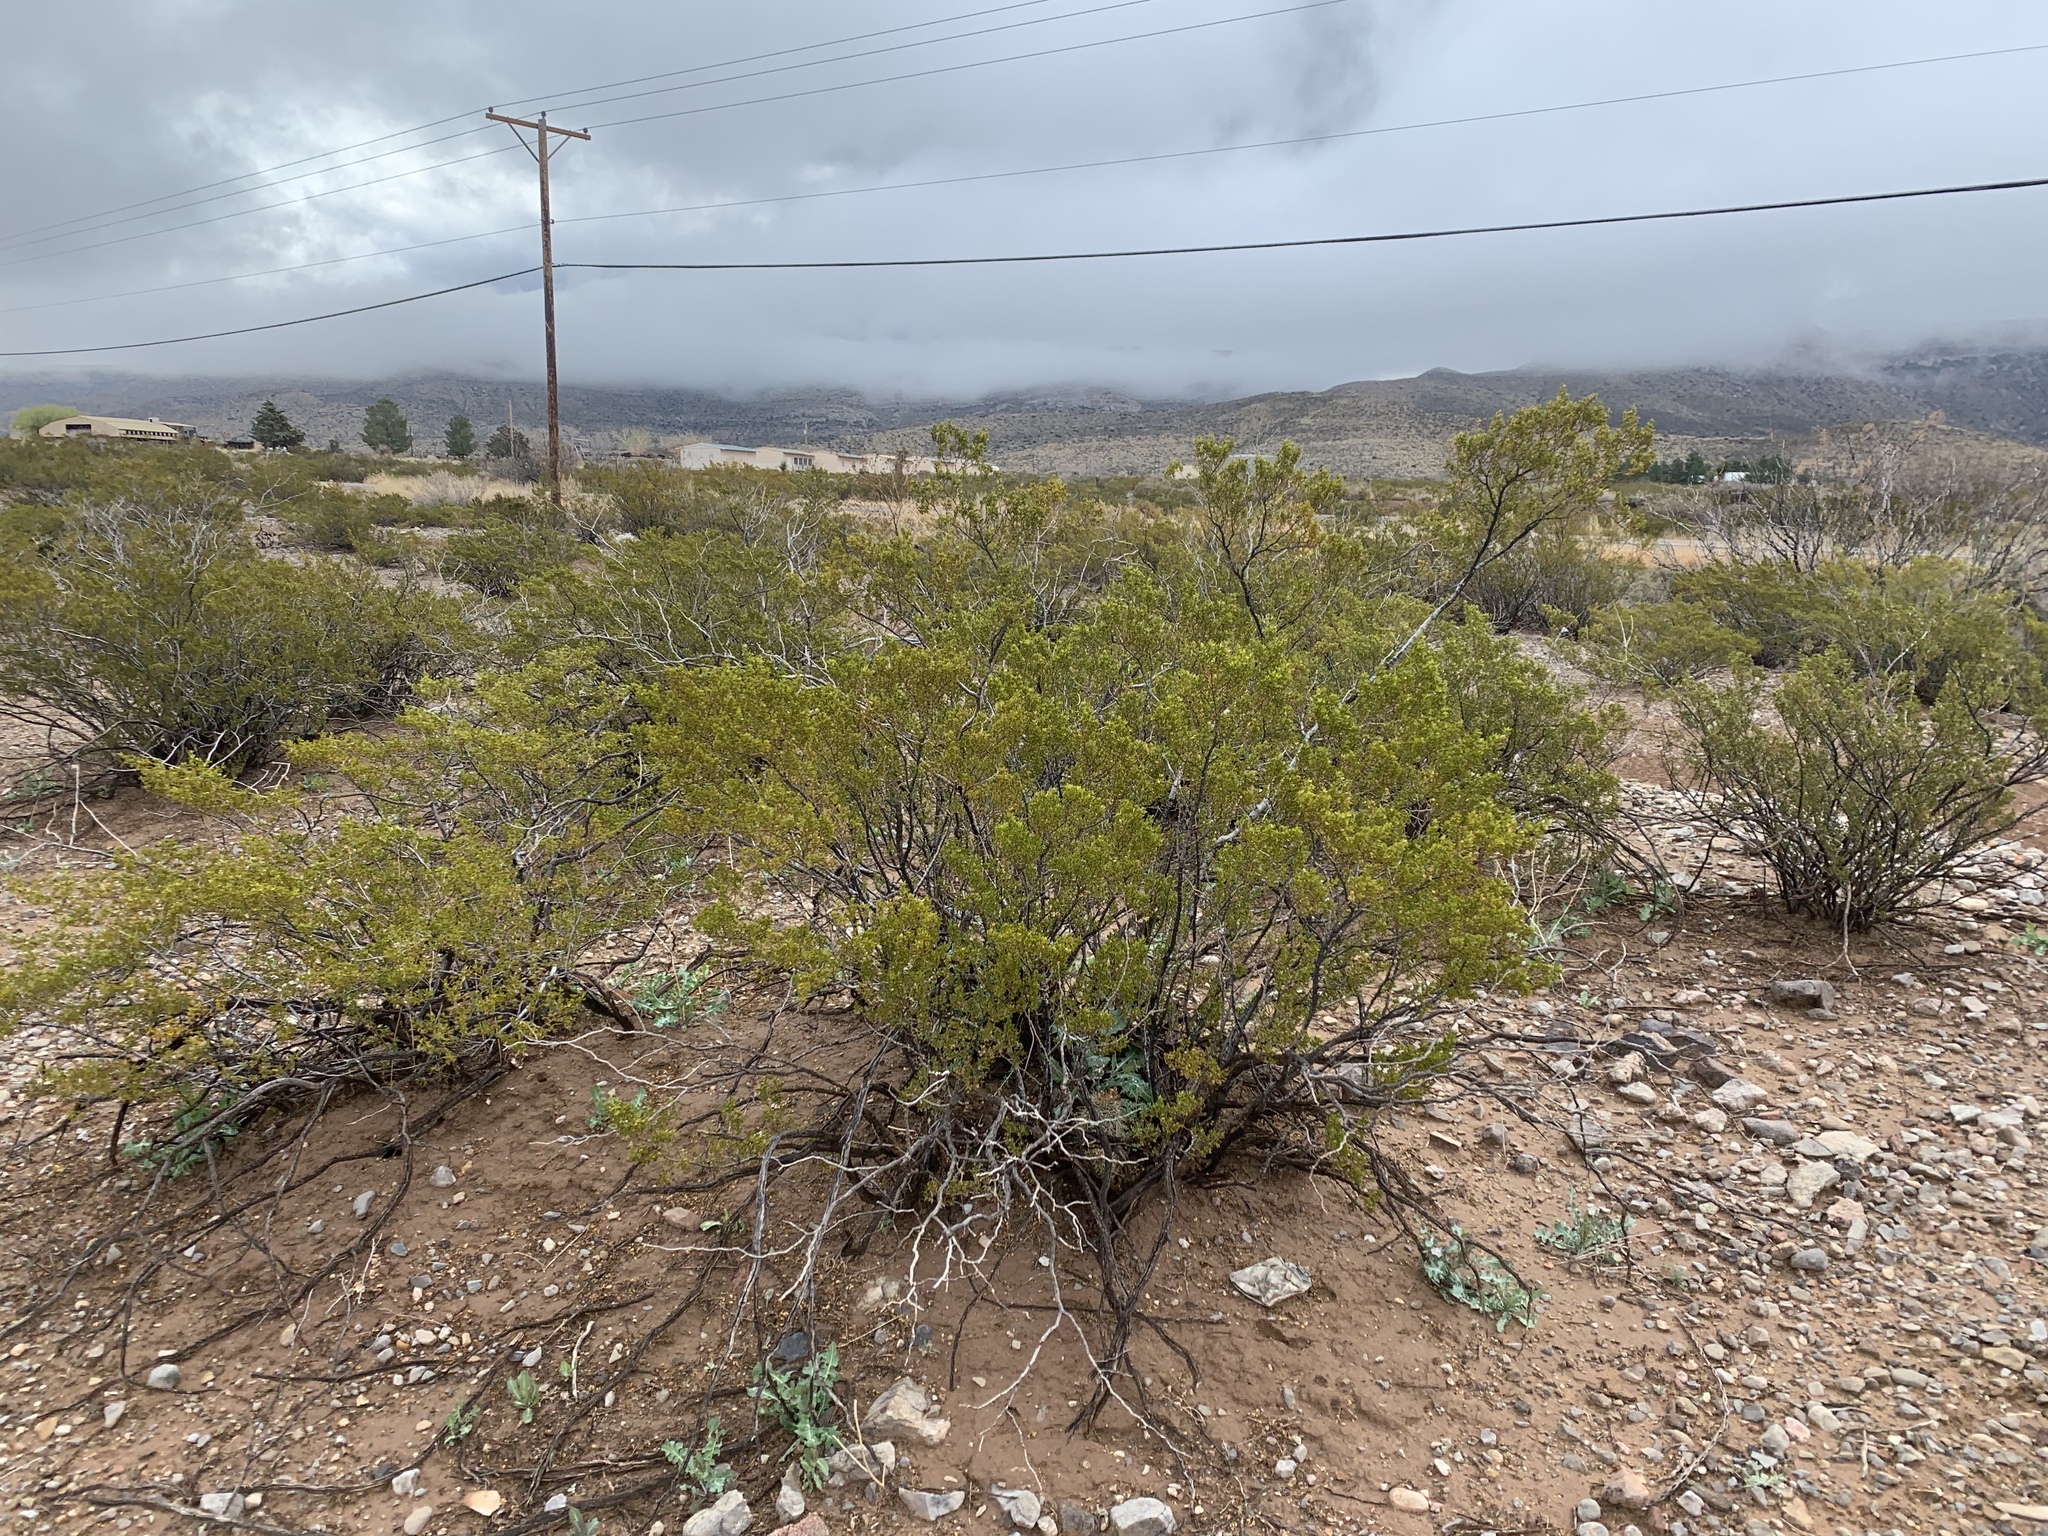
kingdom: Plantae
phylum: Tracheophyta
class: Magnoliopsida
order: Zygophyllales
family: Zygophyllaceae
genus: Larrea
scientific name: Larrea tridentata
